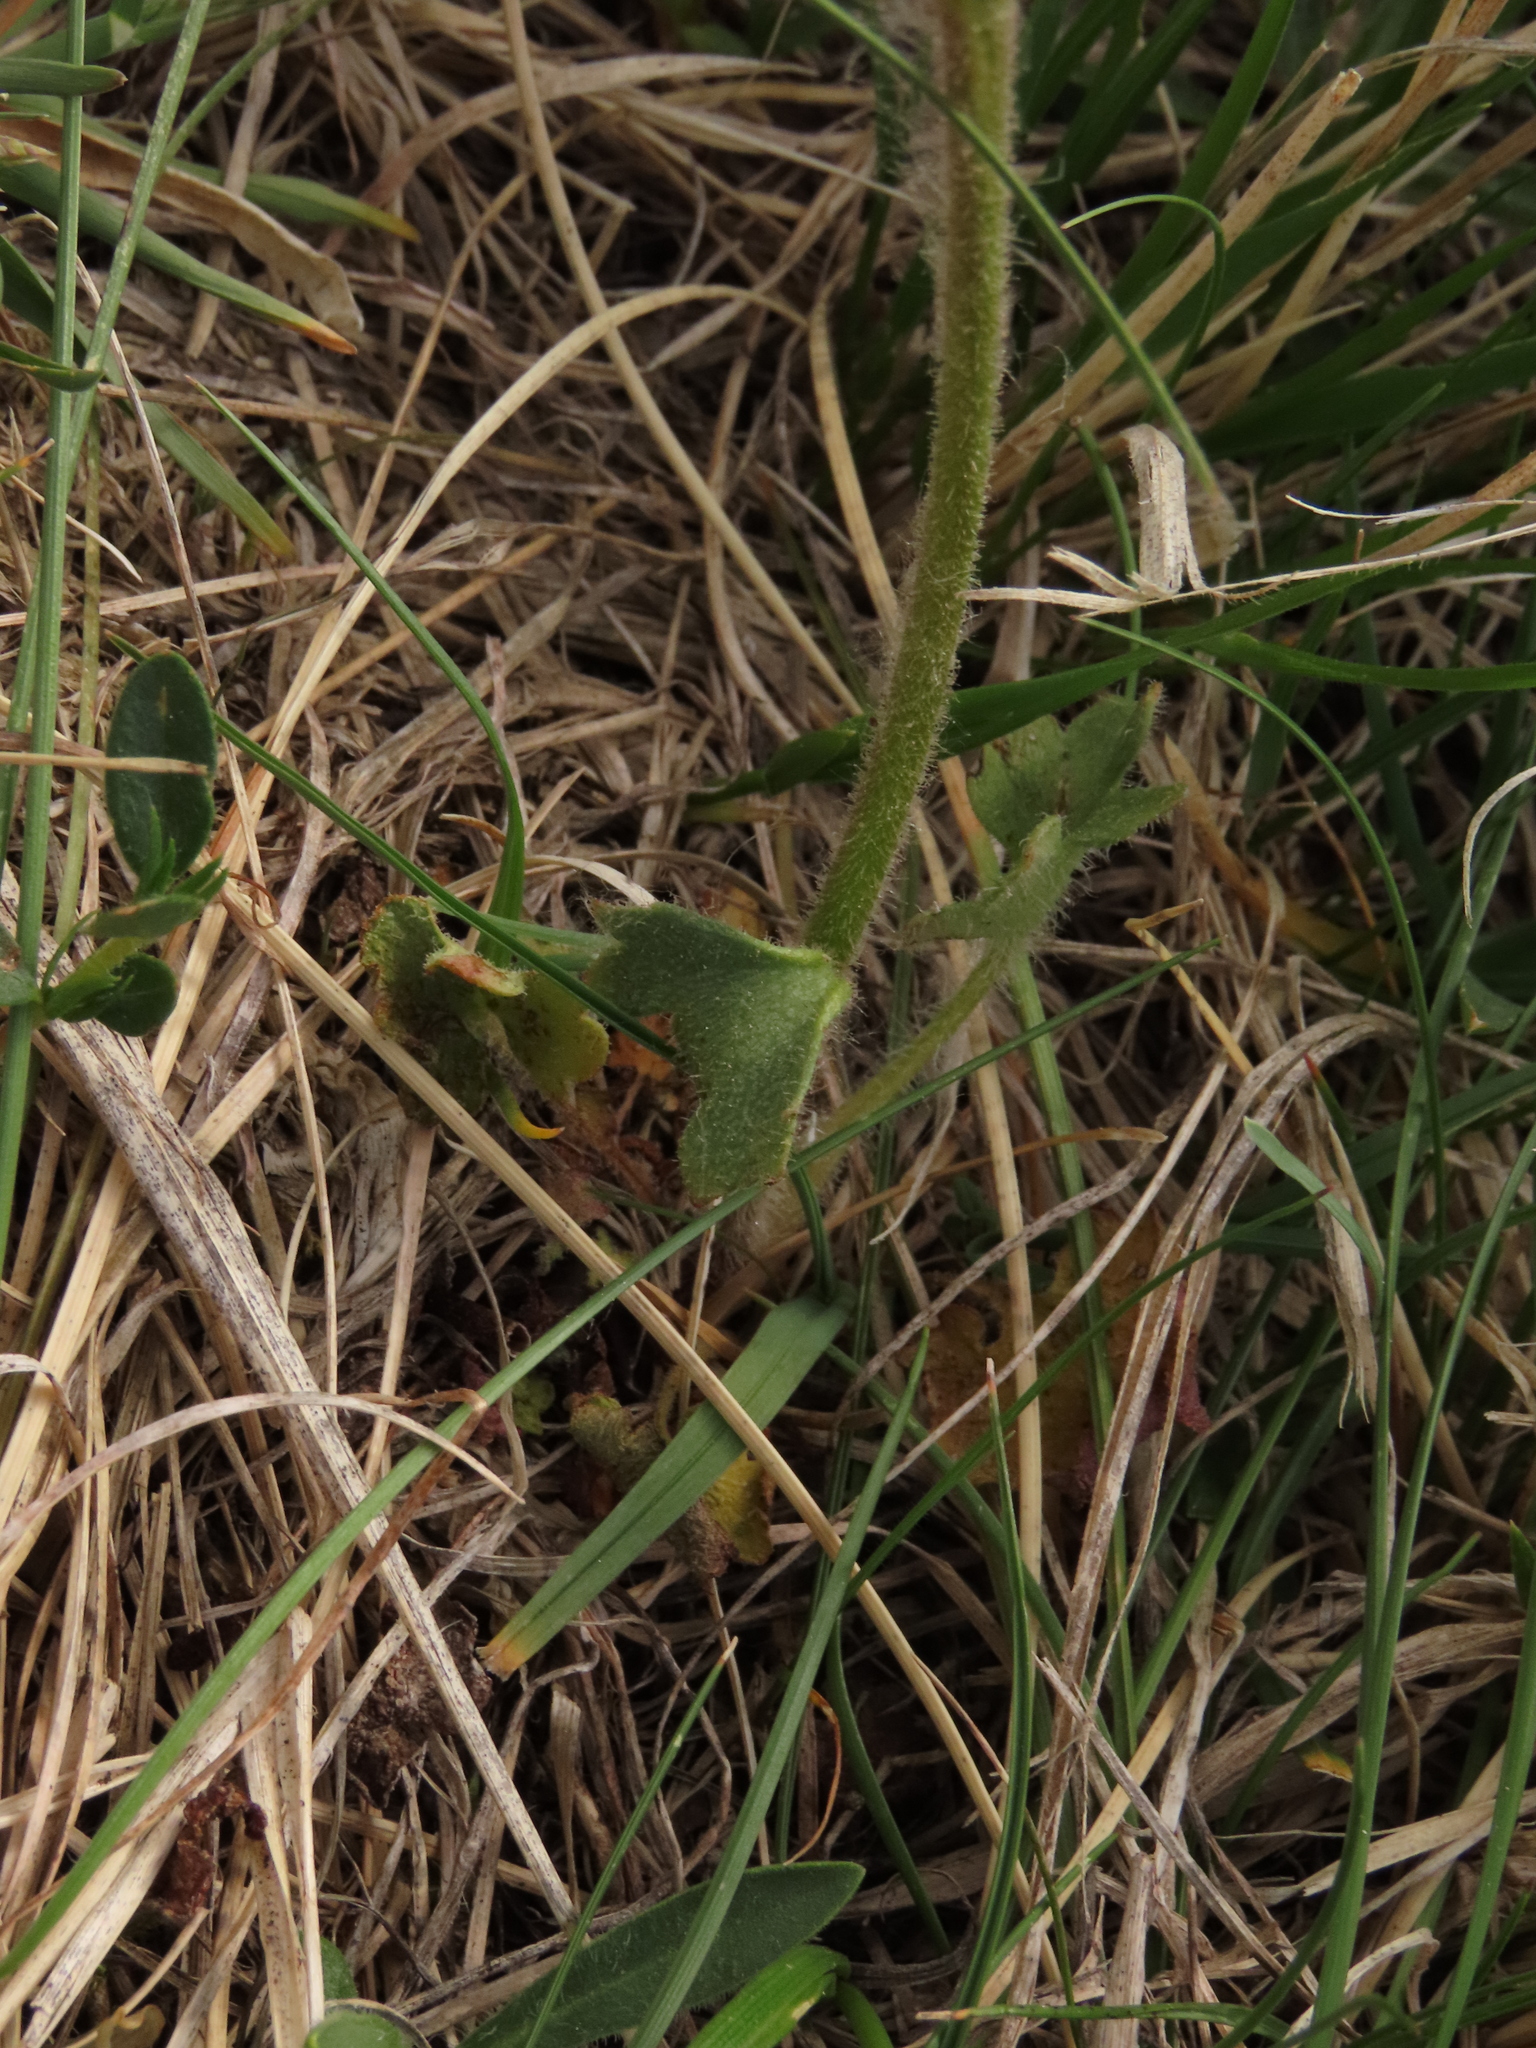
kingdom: Plantae
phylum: Tracheophyta
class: Magnoliopsida
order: Saxifragales
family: Saxifragaceae
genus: Saxifraga
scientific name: Saxifraga granulata
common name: Meadow saxifrage
